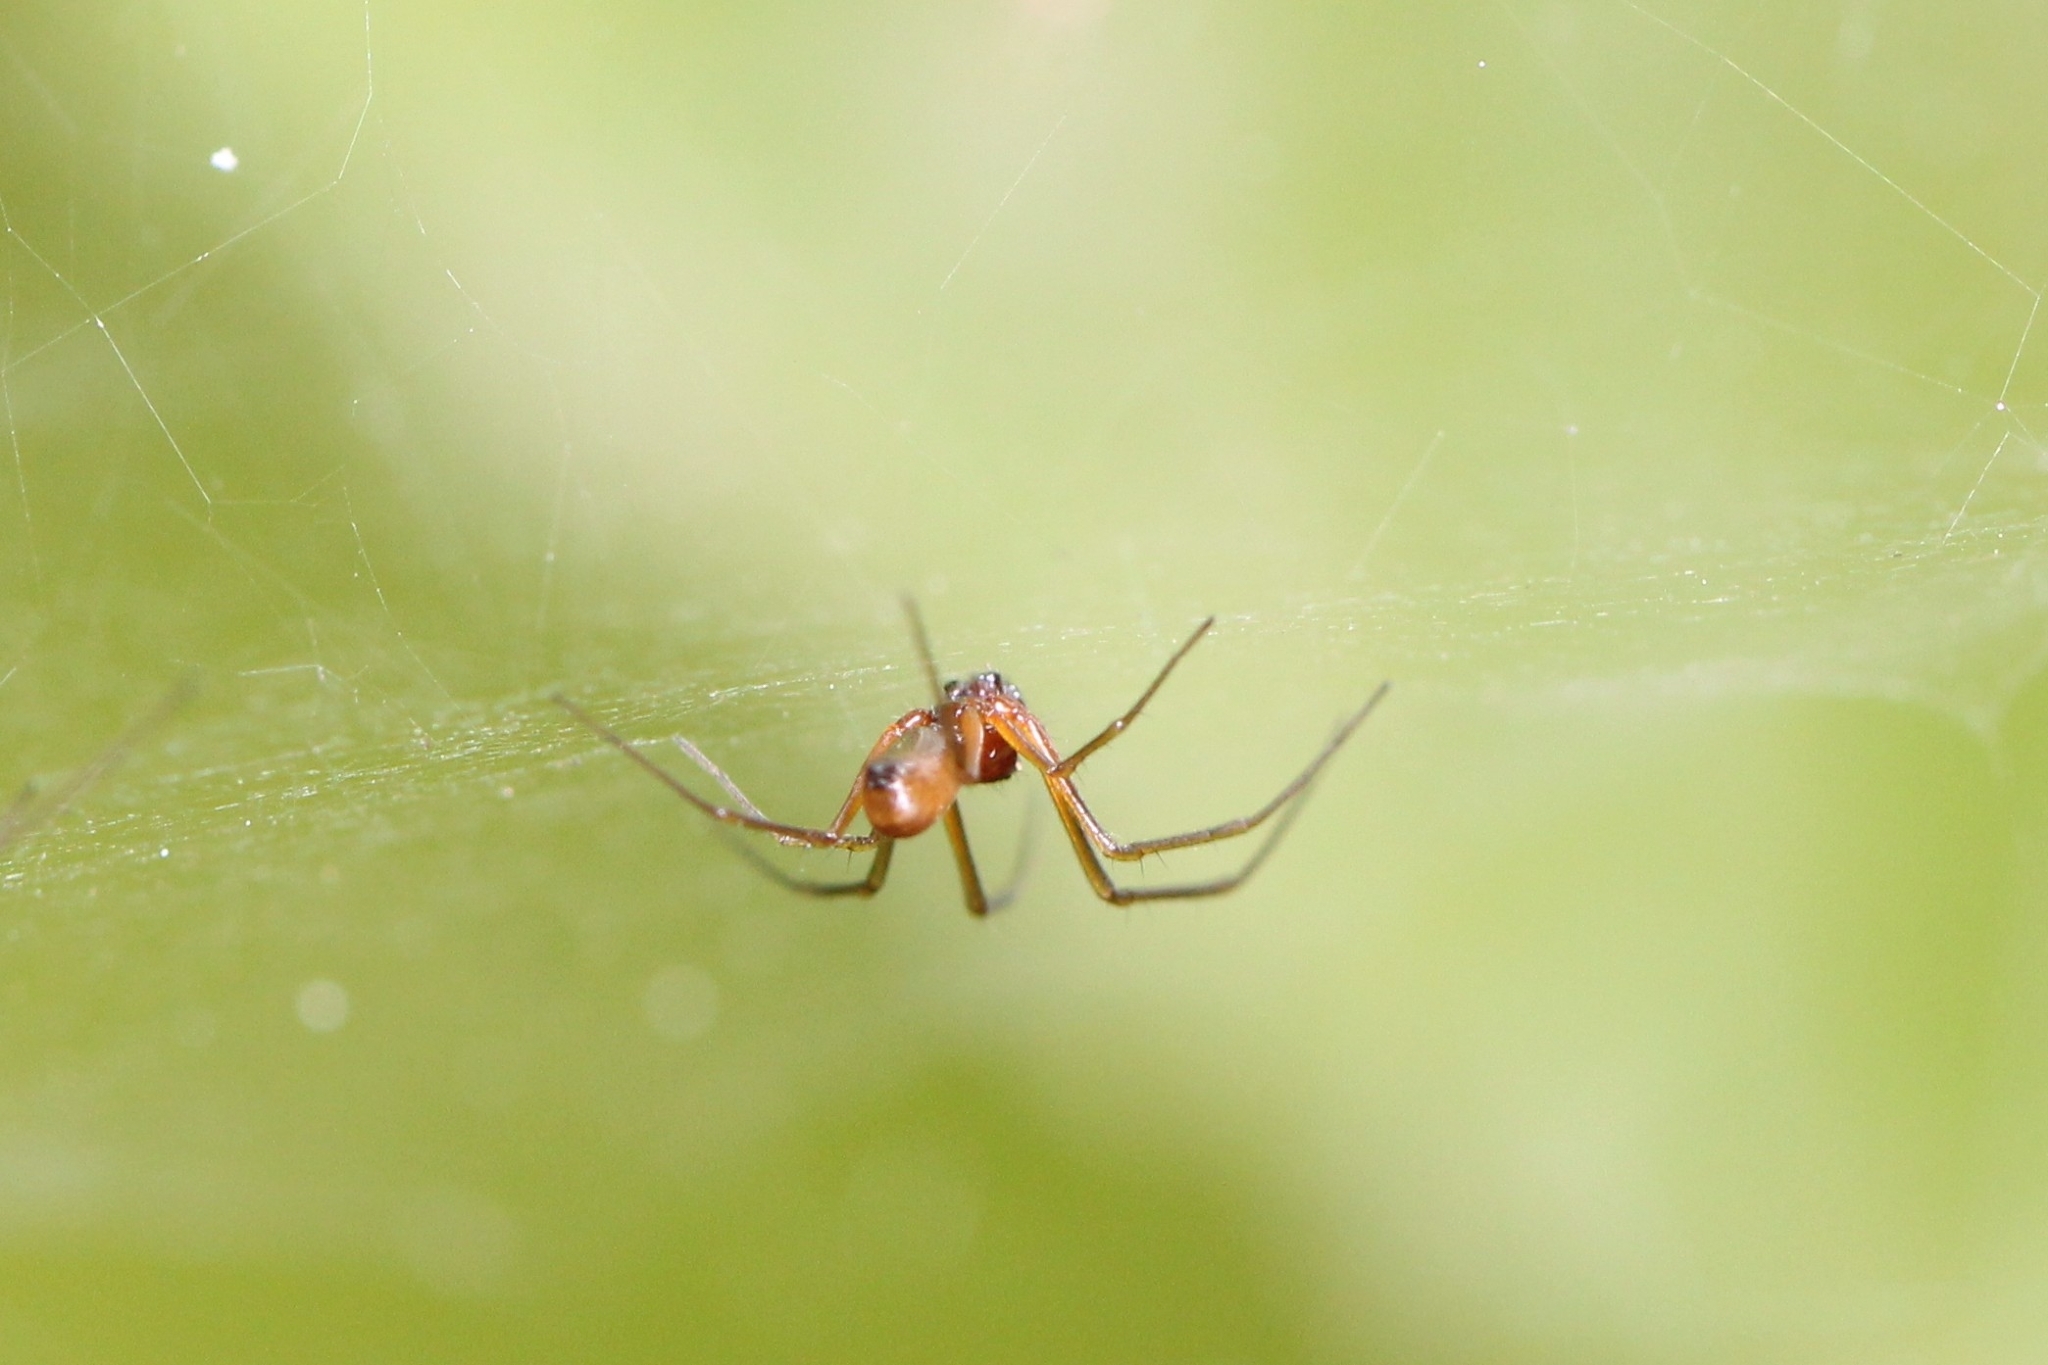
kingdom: Animalia
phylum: Arthropoda
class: Arachnida
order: Araneae
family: Linyphiidae
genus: Frontinella
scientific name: Frontinella pyramitela
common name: Bowl-and-doily spider
